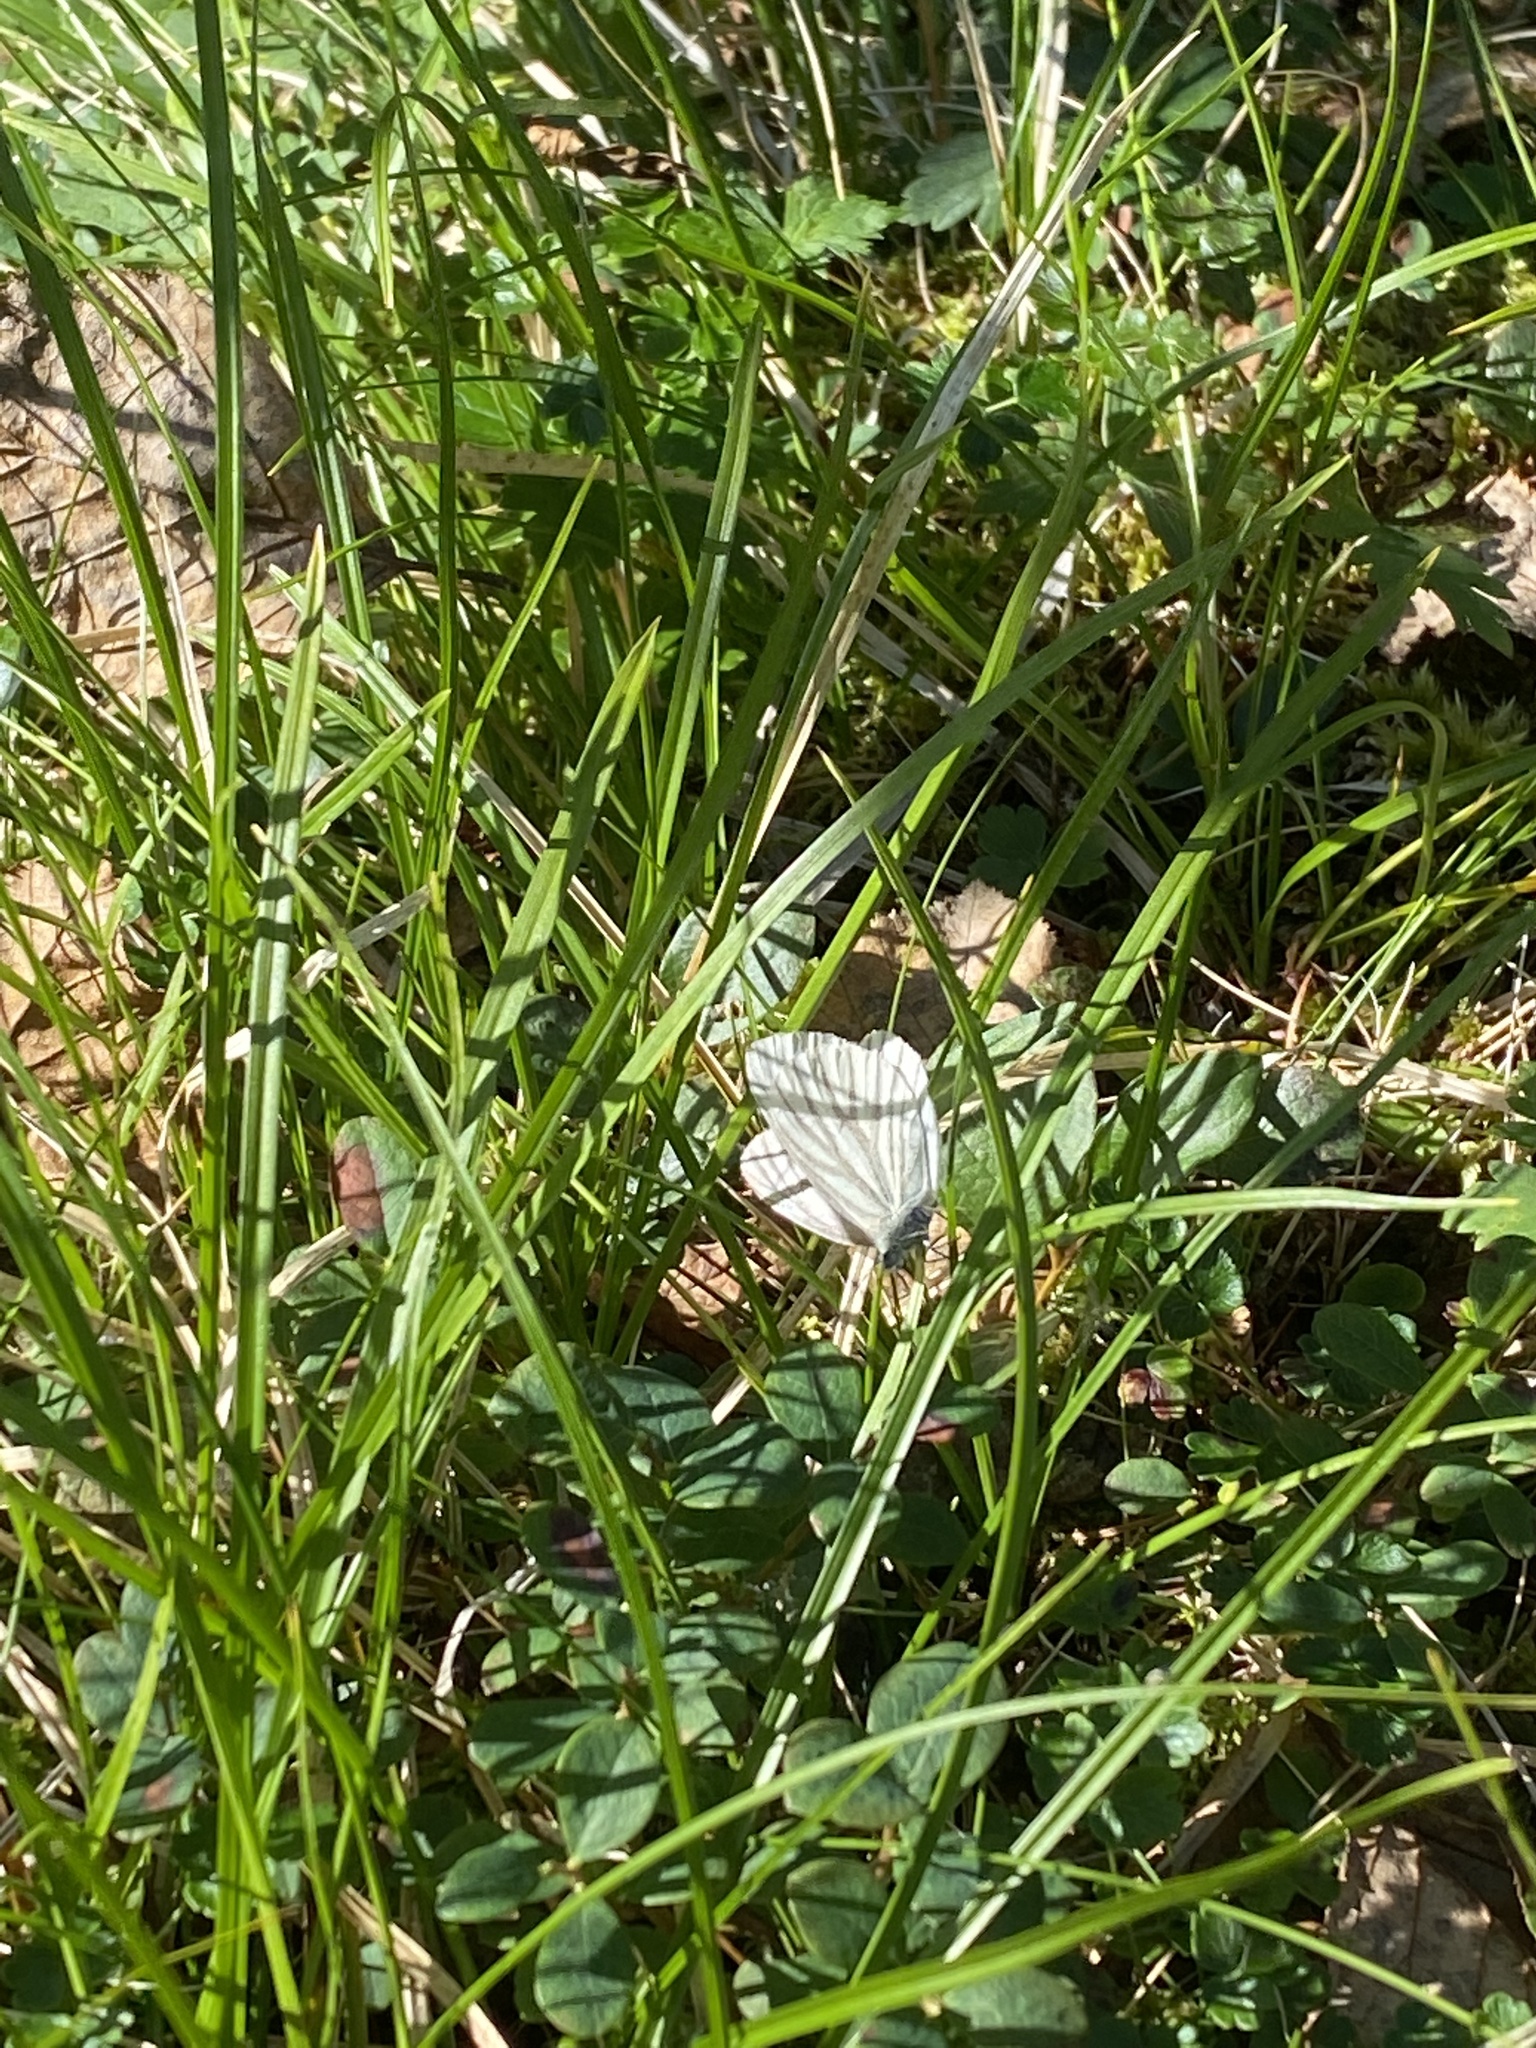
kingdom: Animalia
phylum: Arthropoda
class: Insecta
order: Lepidoptera
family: Pieridae
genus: Pieris
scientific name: Pieris napi
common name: Green-veined white
